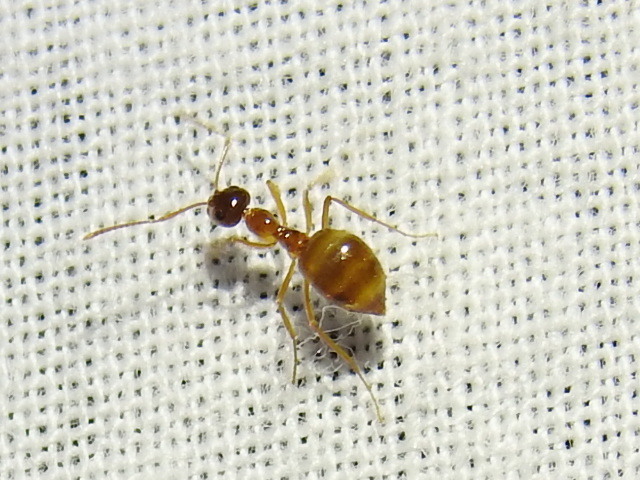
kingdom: Animalia
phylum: Arthropoda
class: Insecta
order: Hymenoptera
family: Formicidae
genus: Prenolepis
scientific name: Prenolepis imparis
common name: Small honey ant
